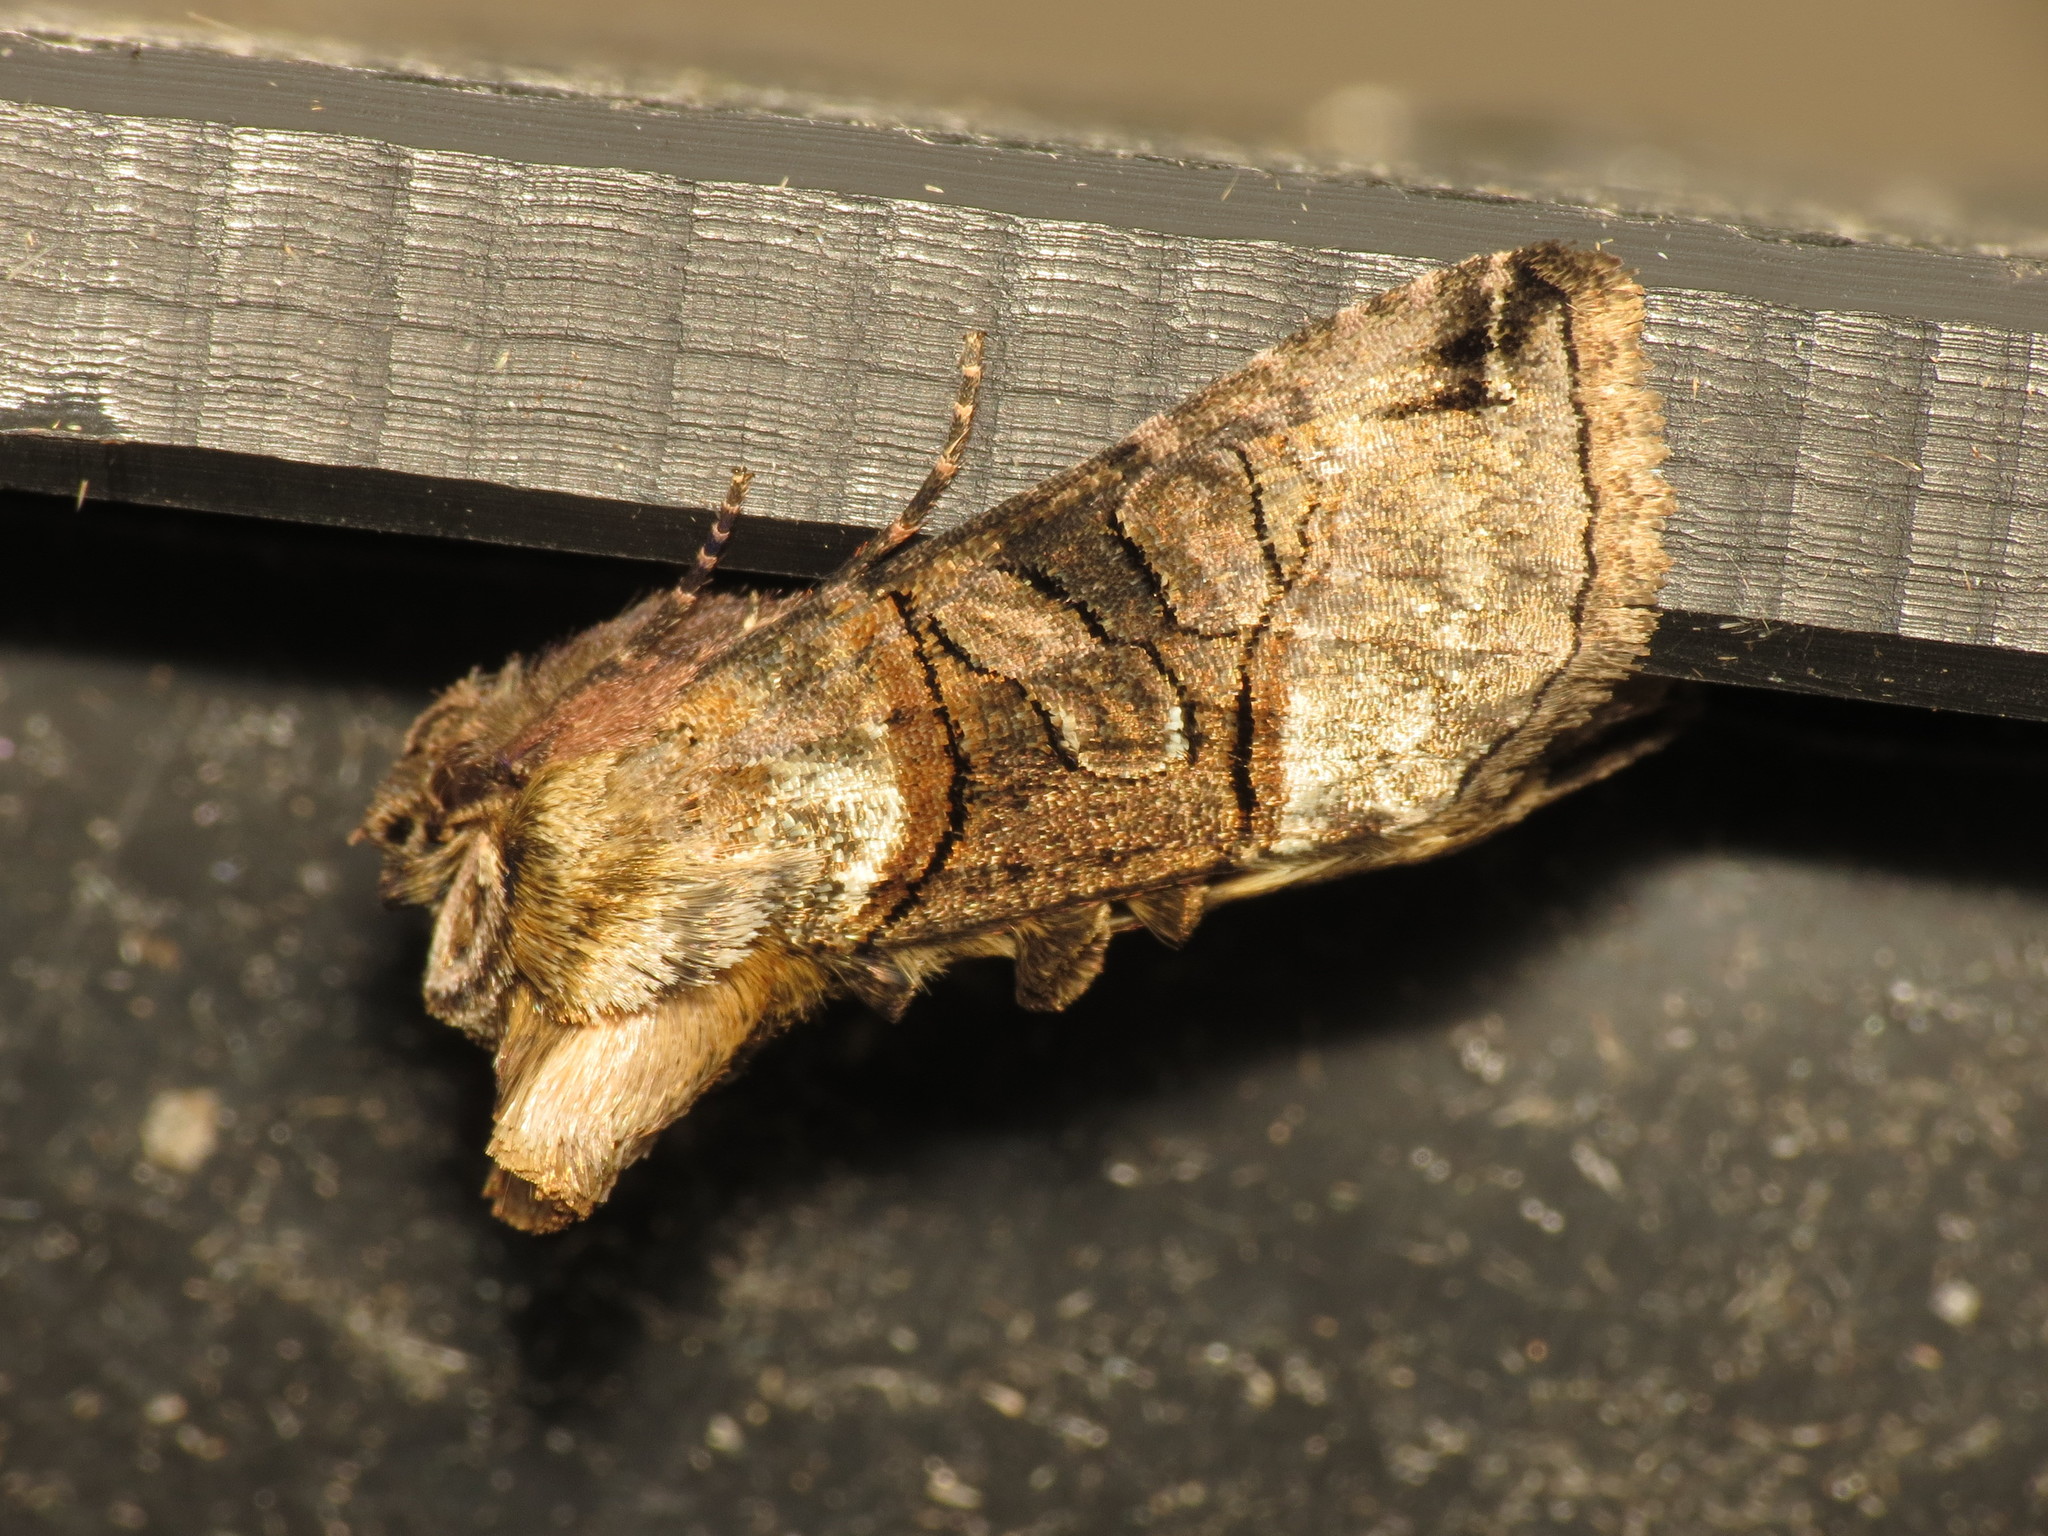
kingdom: Animalia
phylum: Arthropoda
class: Insecta
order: Lepidoptera
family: Noctuidae
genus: Abrostola
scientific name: Abrostola tripartita
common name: Spectacle
